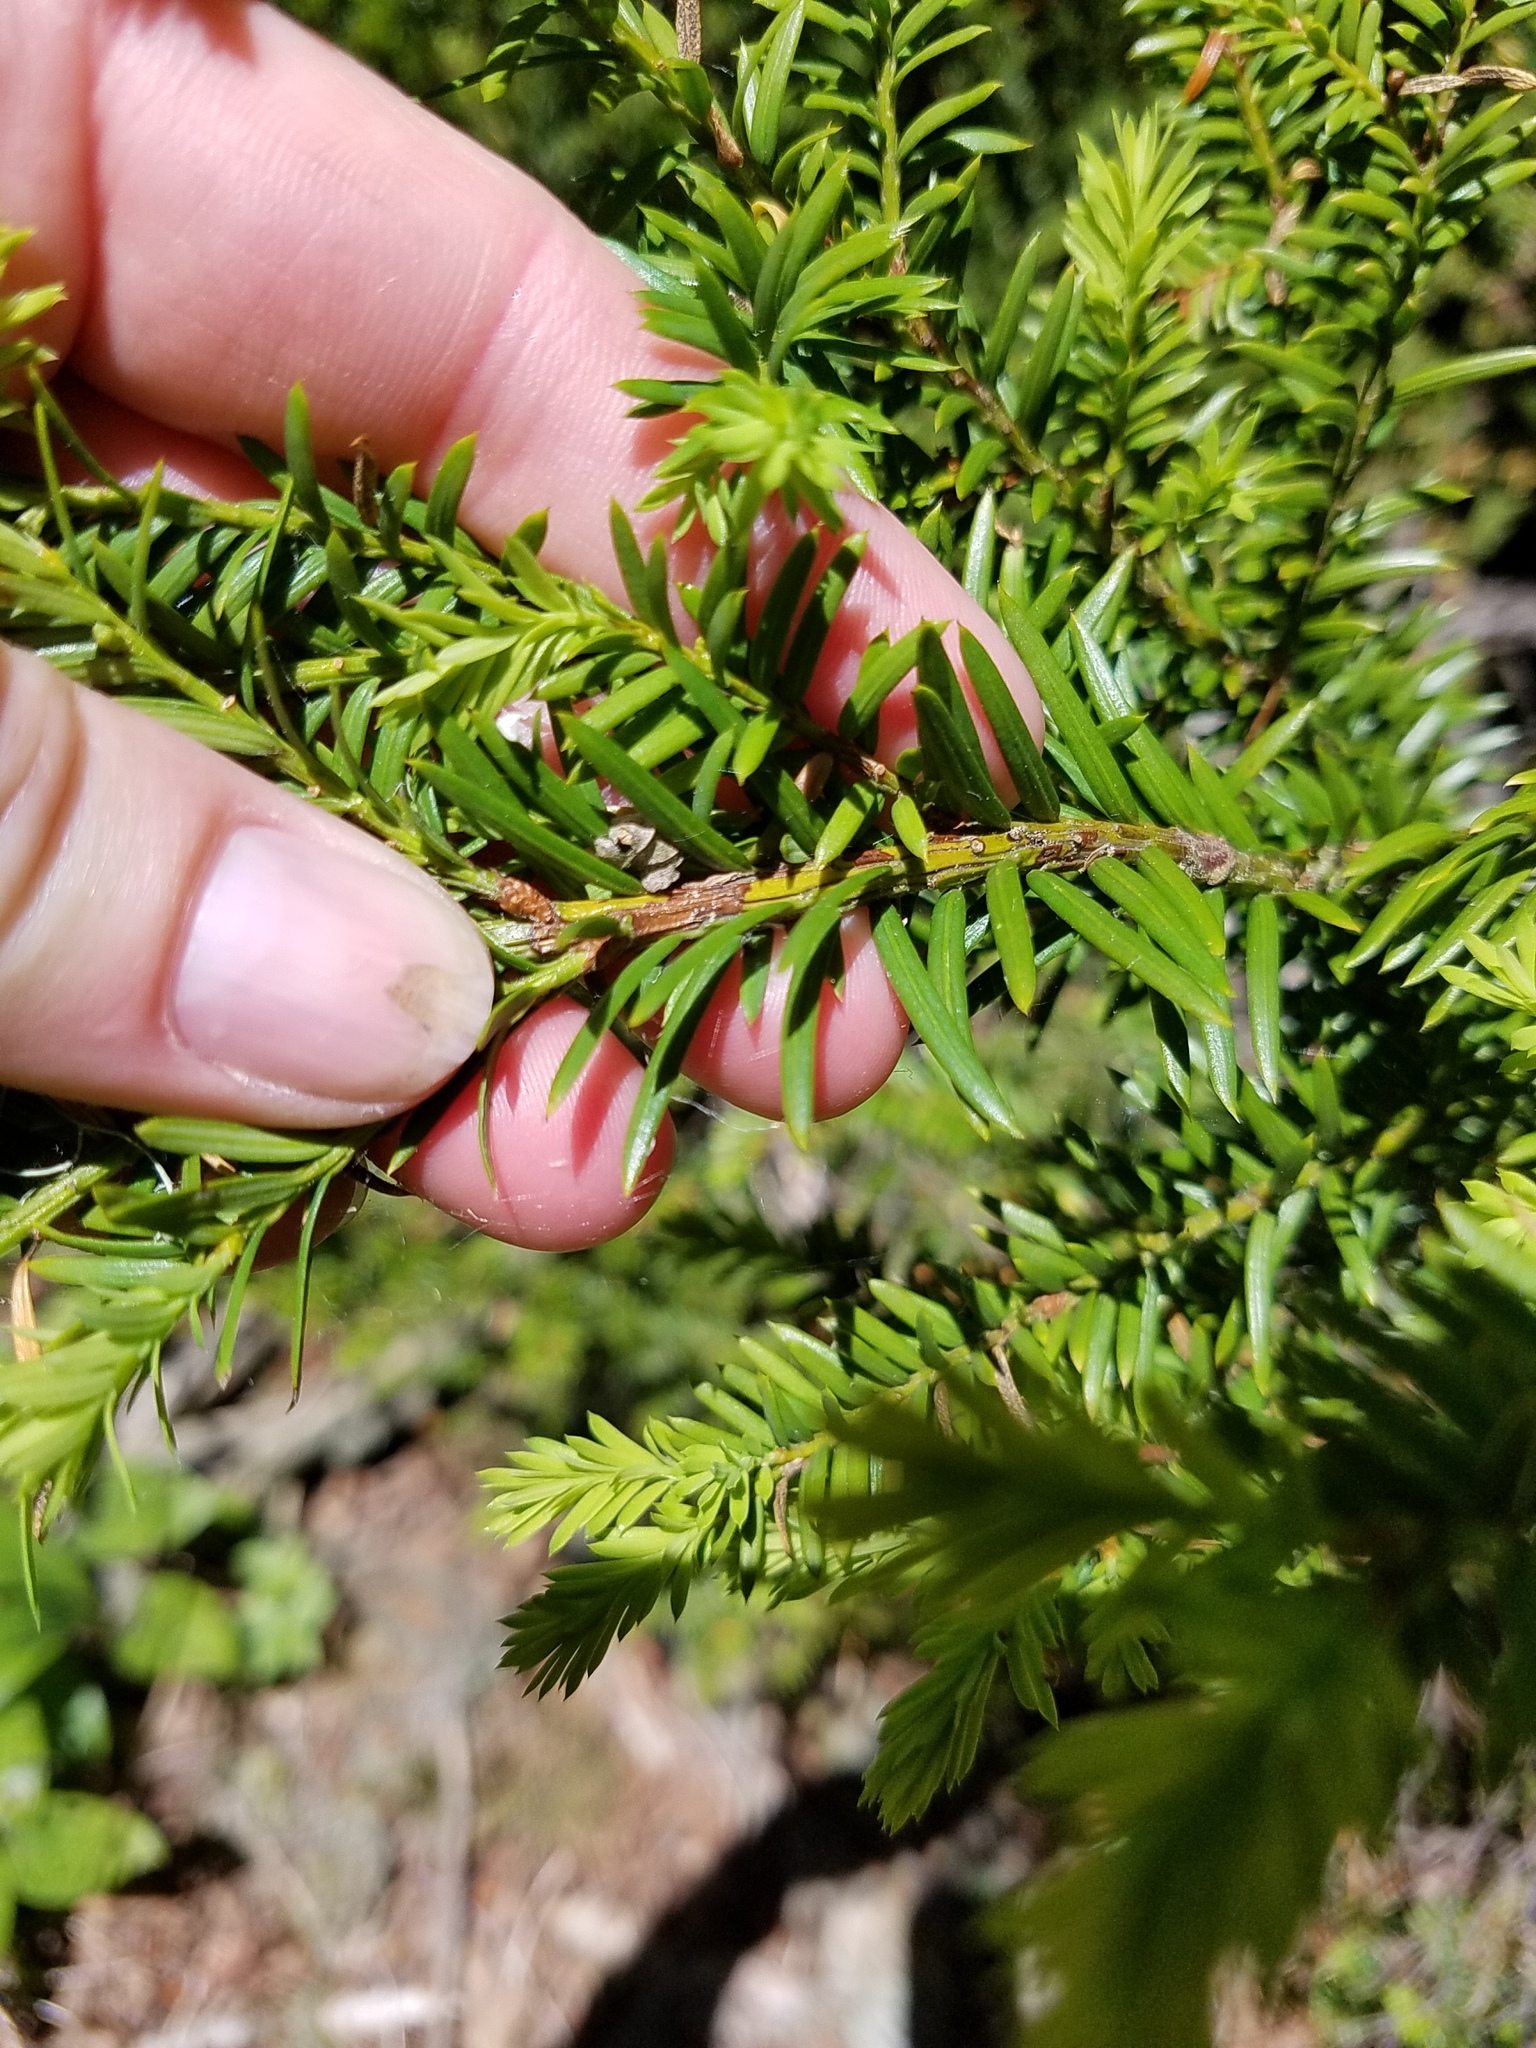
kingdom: Plantae
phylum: Tracheophyta
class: Pinopsida
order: Pinales
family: Taxaceae
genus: Taxus
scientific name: Taxus canadensis
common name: American yew
